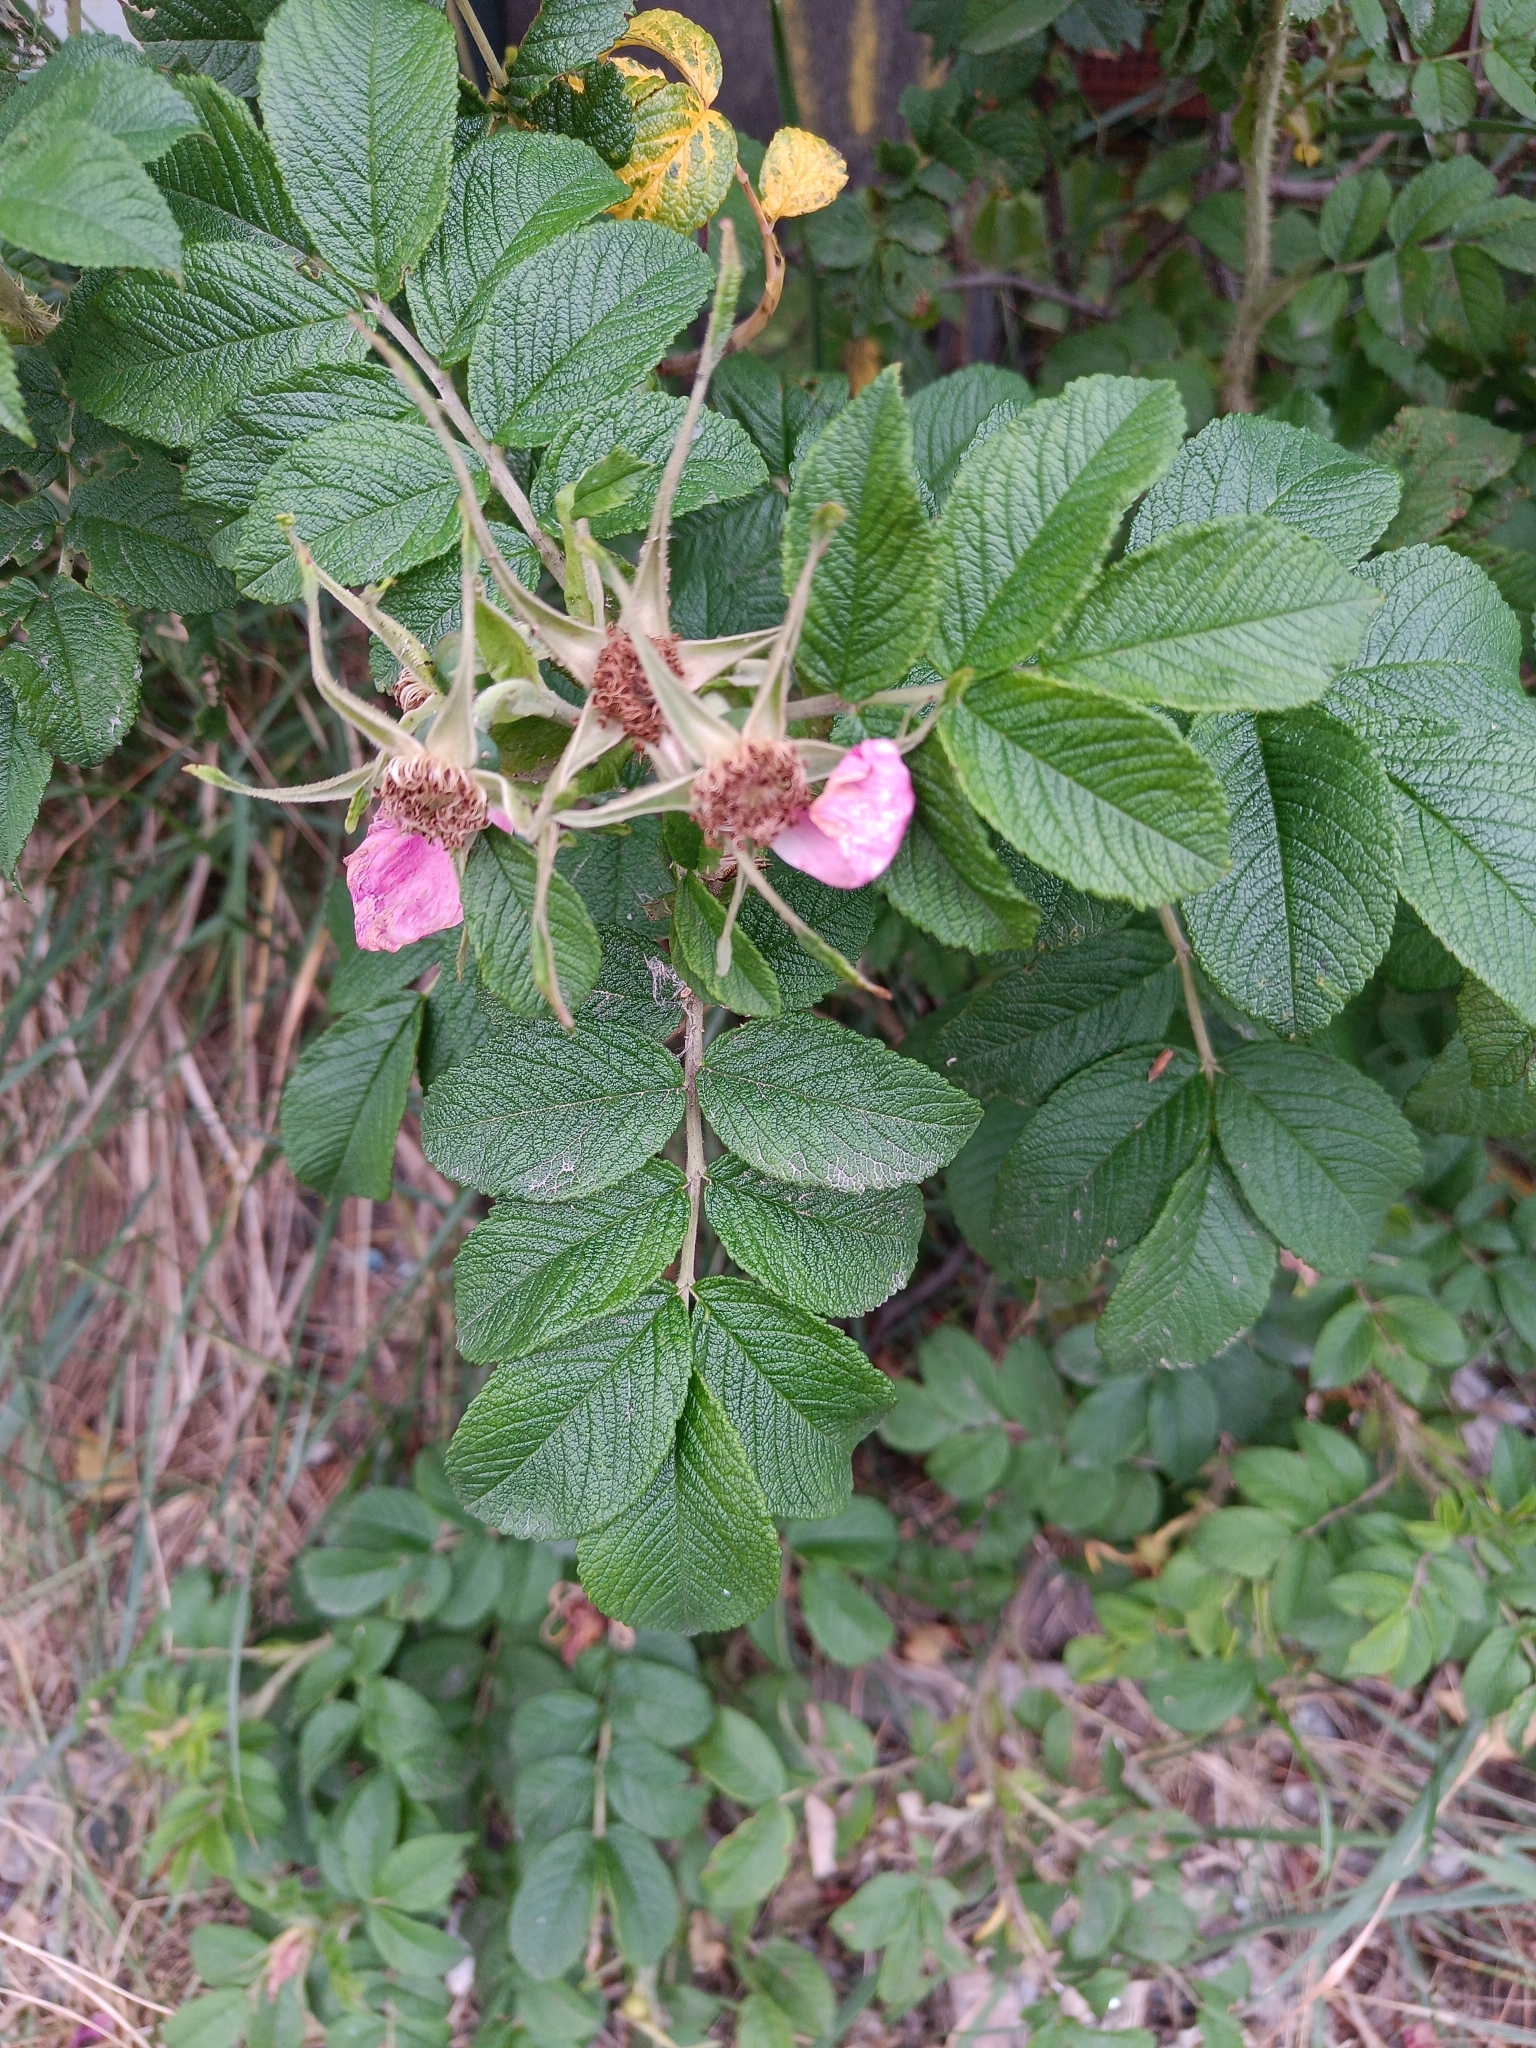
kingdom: Plantae
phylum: Tracheophyta
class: Magnoliopsida
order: Rosales
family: Rosaceae
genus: Rosa
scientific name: Rosa rugosa
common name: Japanese rose
